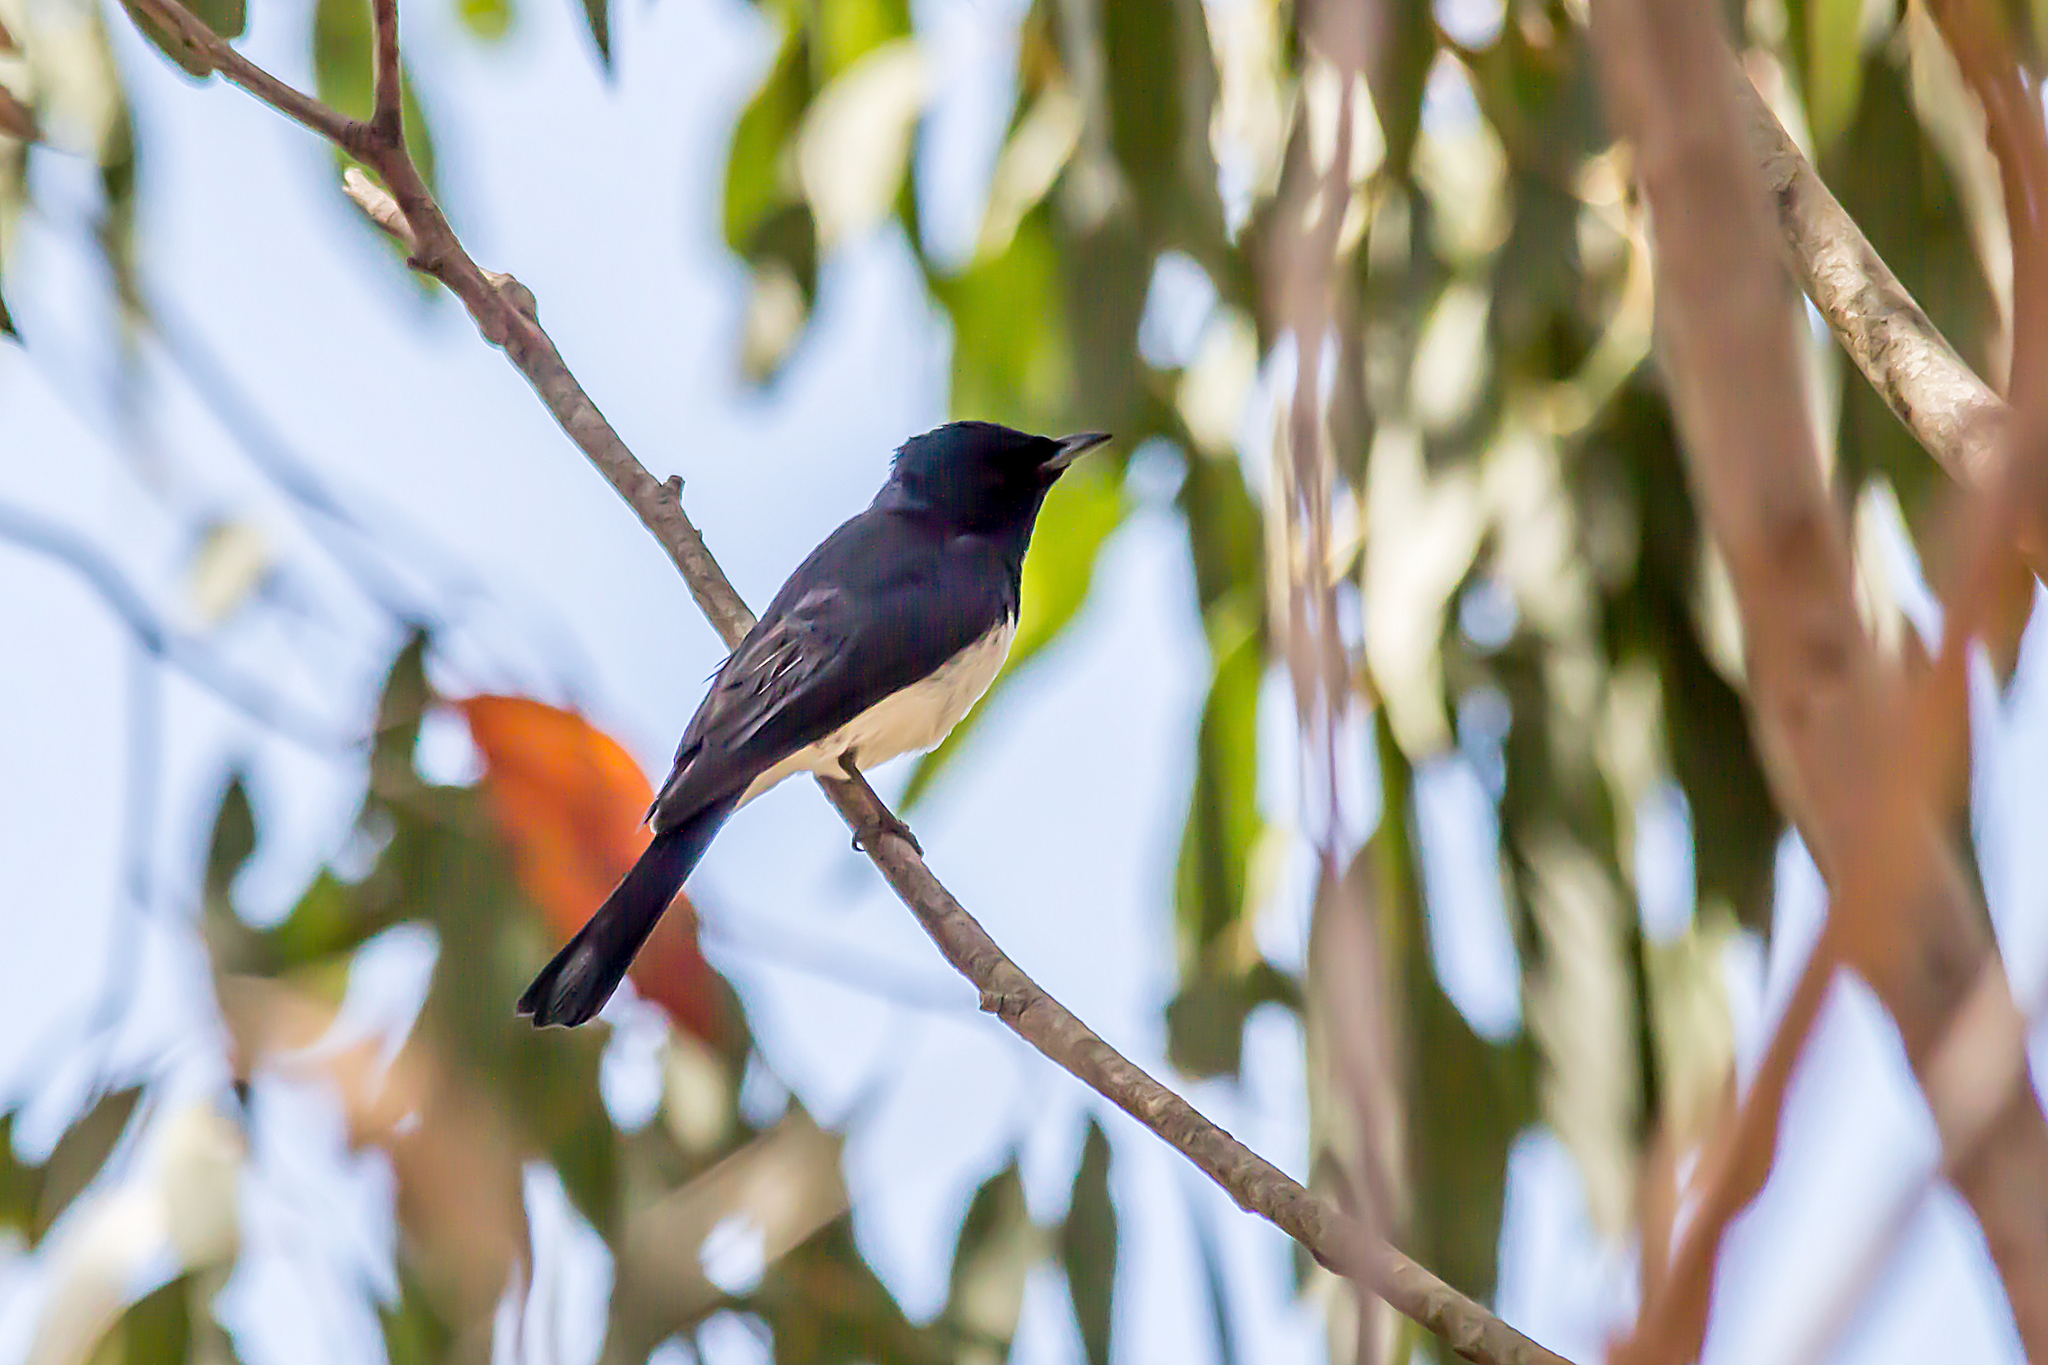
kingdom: Animalia
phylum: Chordata
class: Aves
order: Passeriformes
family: Monarchidae
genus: Myiagra
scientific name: Myiagra cyanoleuca
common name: Satin flycatcher
